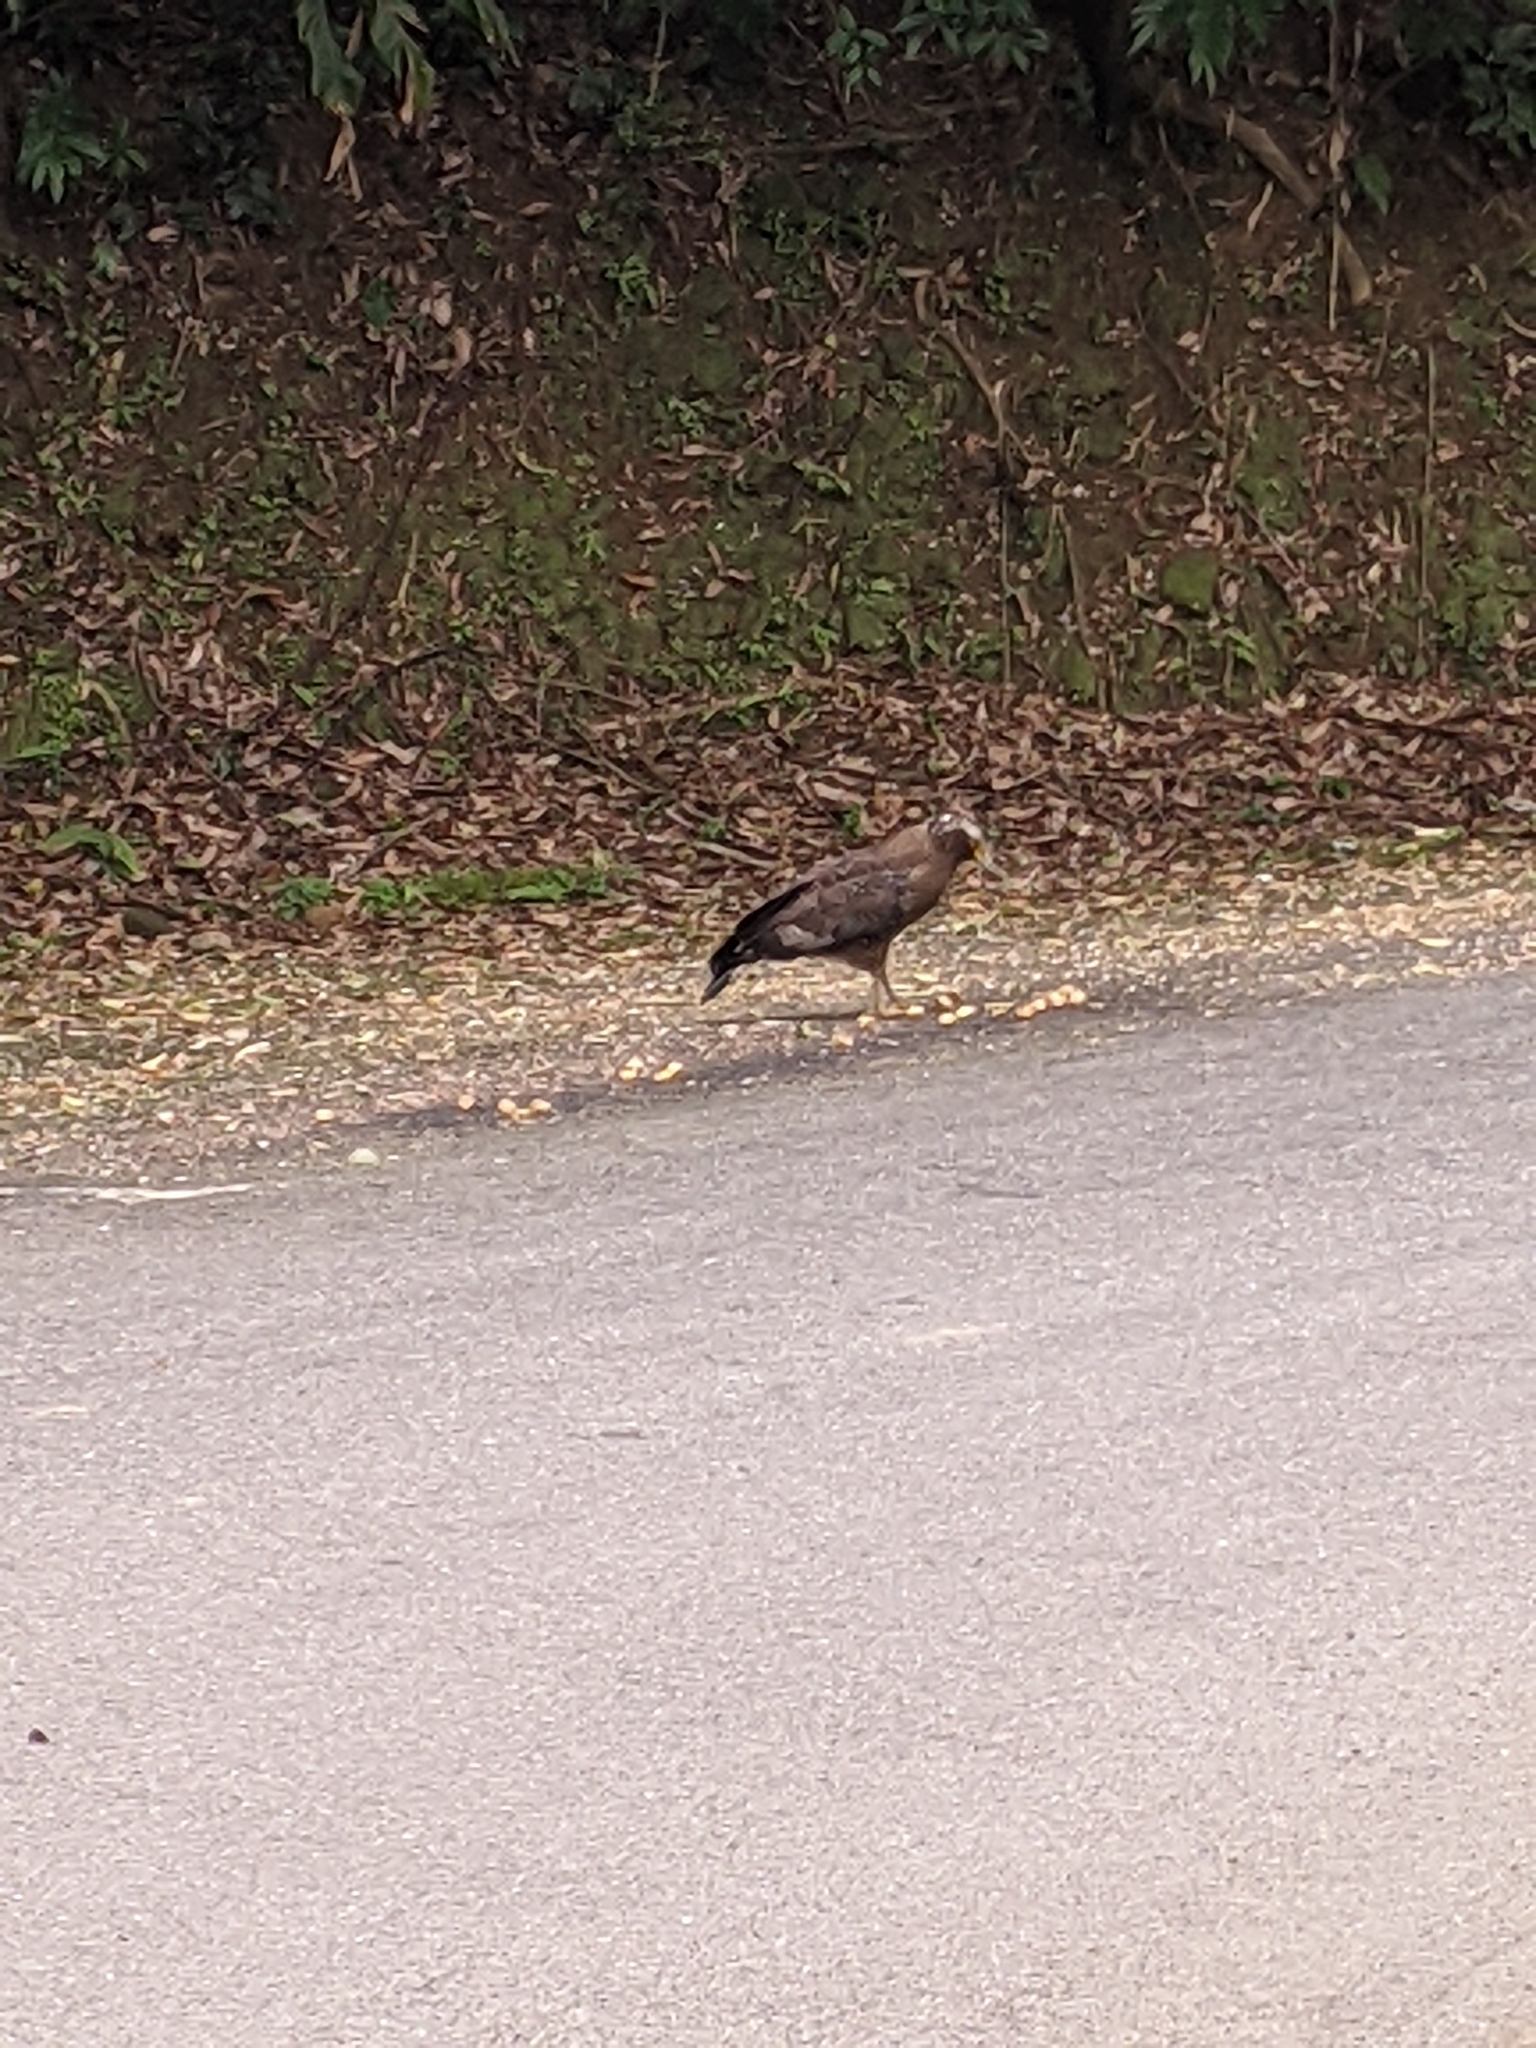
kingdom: Animalia
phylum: Chordata
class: Aves
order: Accipitriformes
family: Accipitridae
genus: Spilornis
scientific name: Spilornis cheela
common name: Crested serpent eagle
